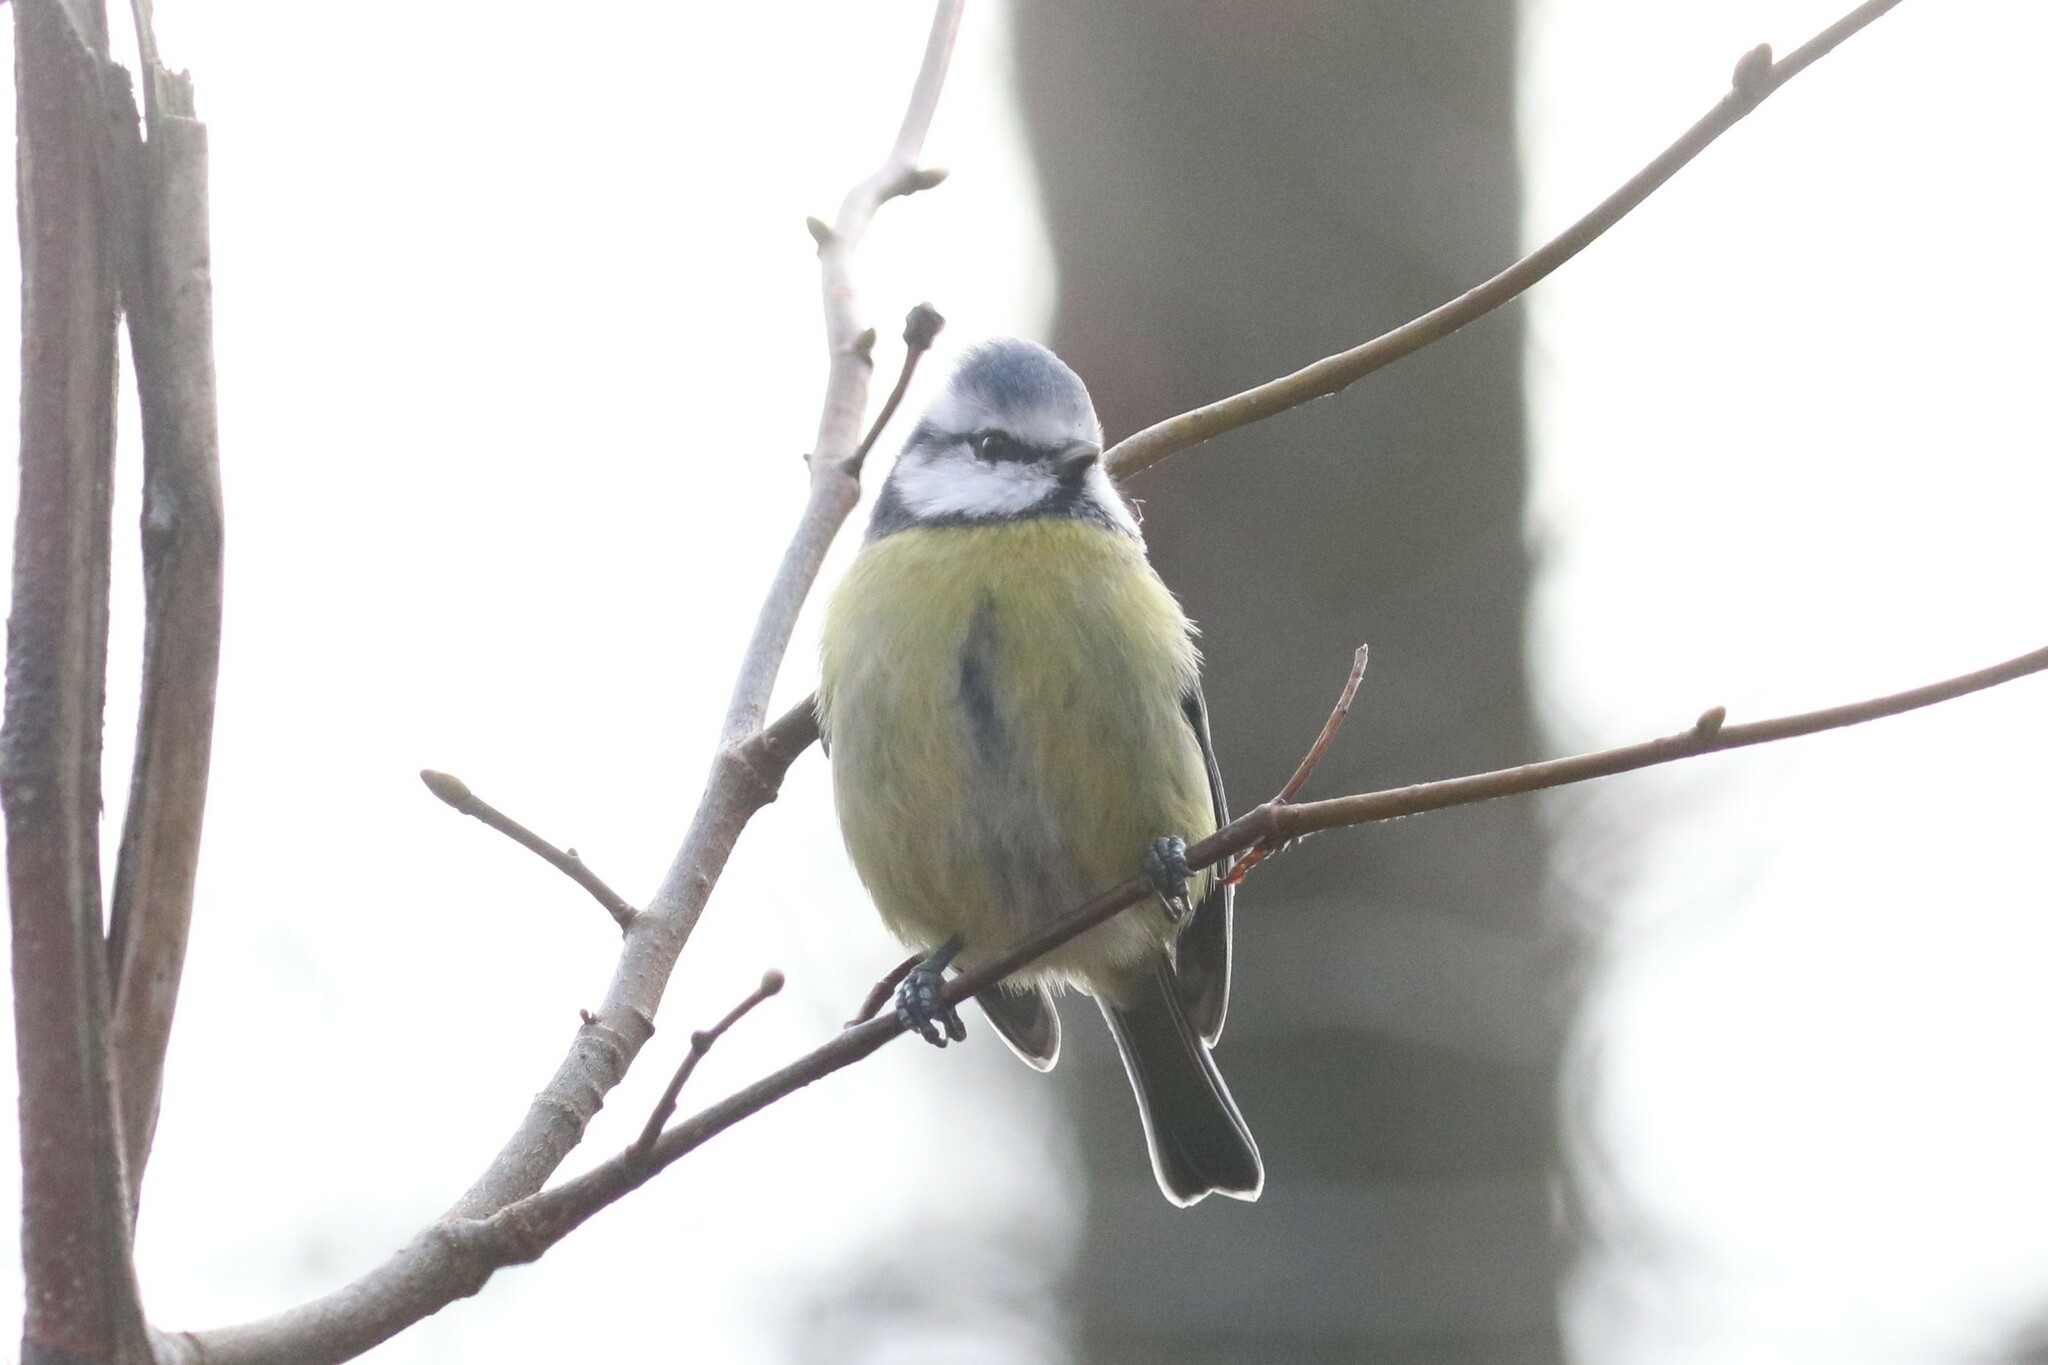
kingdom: Animalia
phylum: Chordata
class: Aves
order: Passeriformes
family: Paridae
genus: Cyanistes
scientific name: Cyanistes caeruleus
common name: Eurasian blue tit
